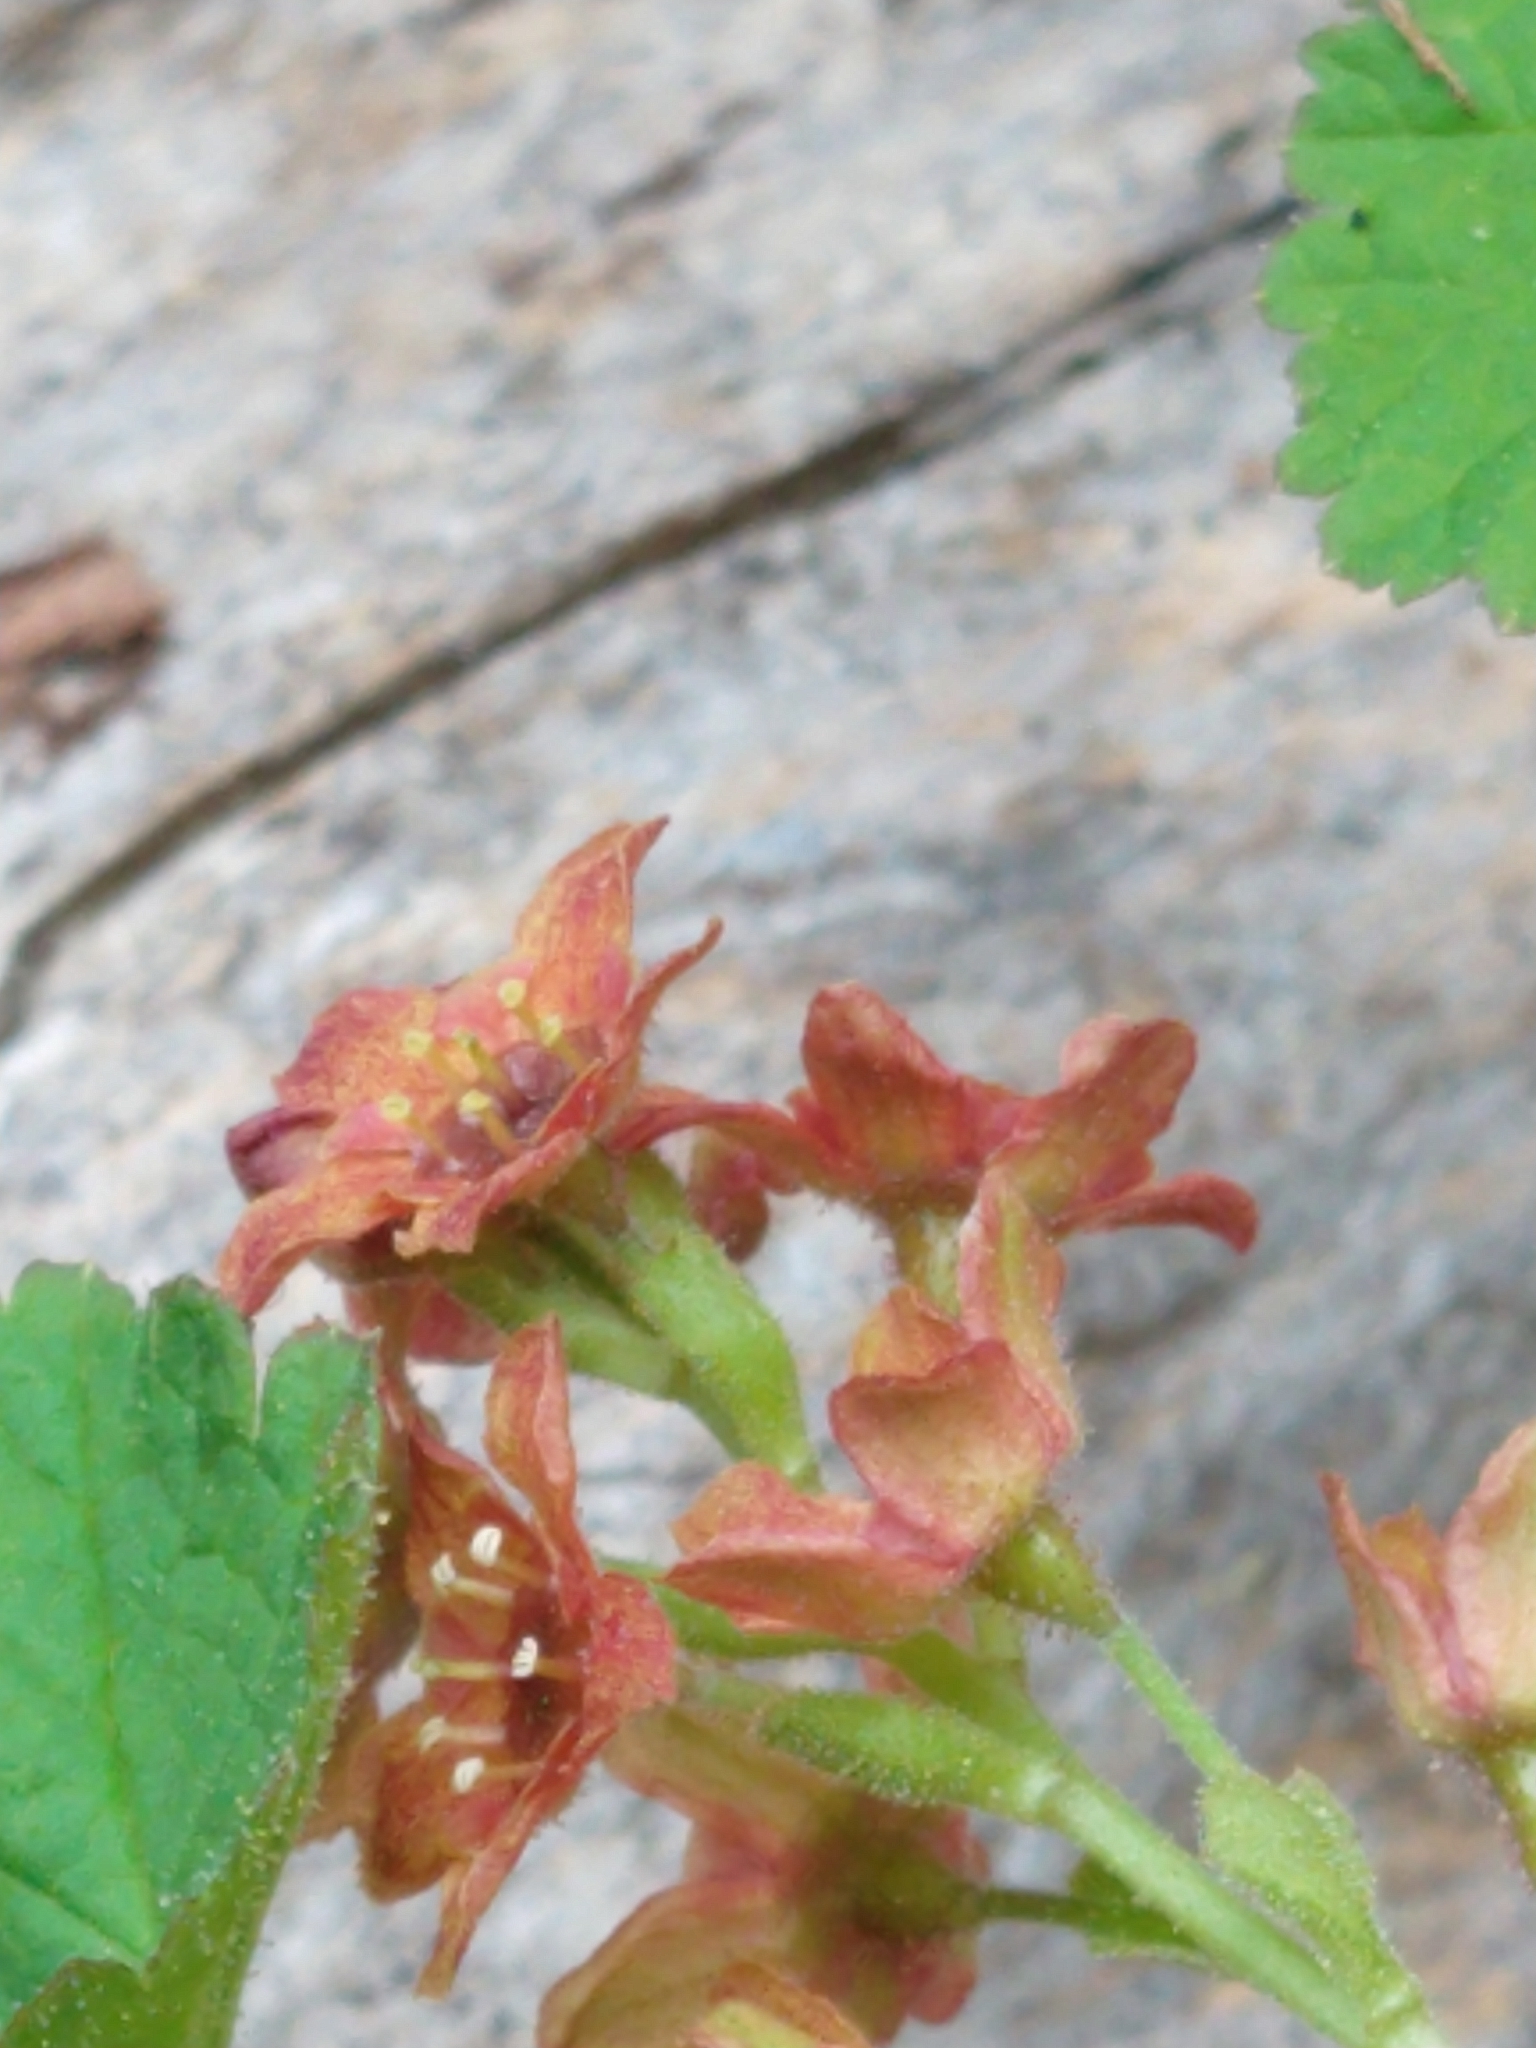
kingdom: Plantae
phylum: Tracheophyta
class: Magnoliopsida
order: Saxifragales
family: Grossulariaceae
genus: Ribes
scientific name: Ribes erythrocarpum
